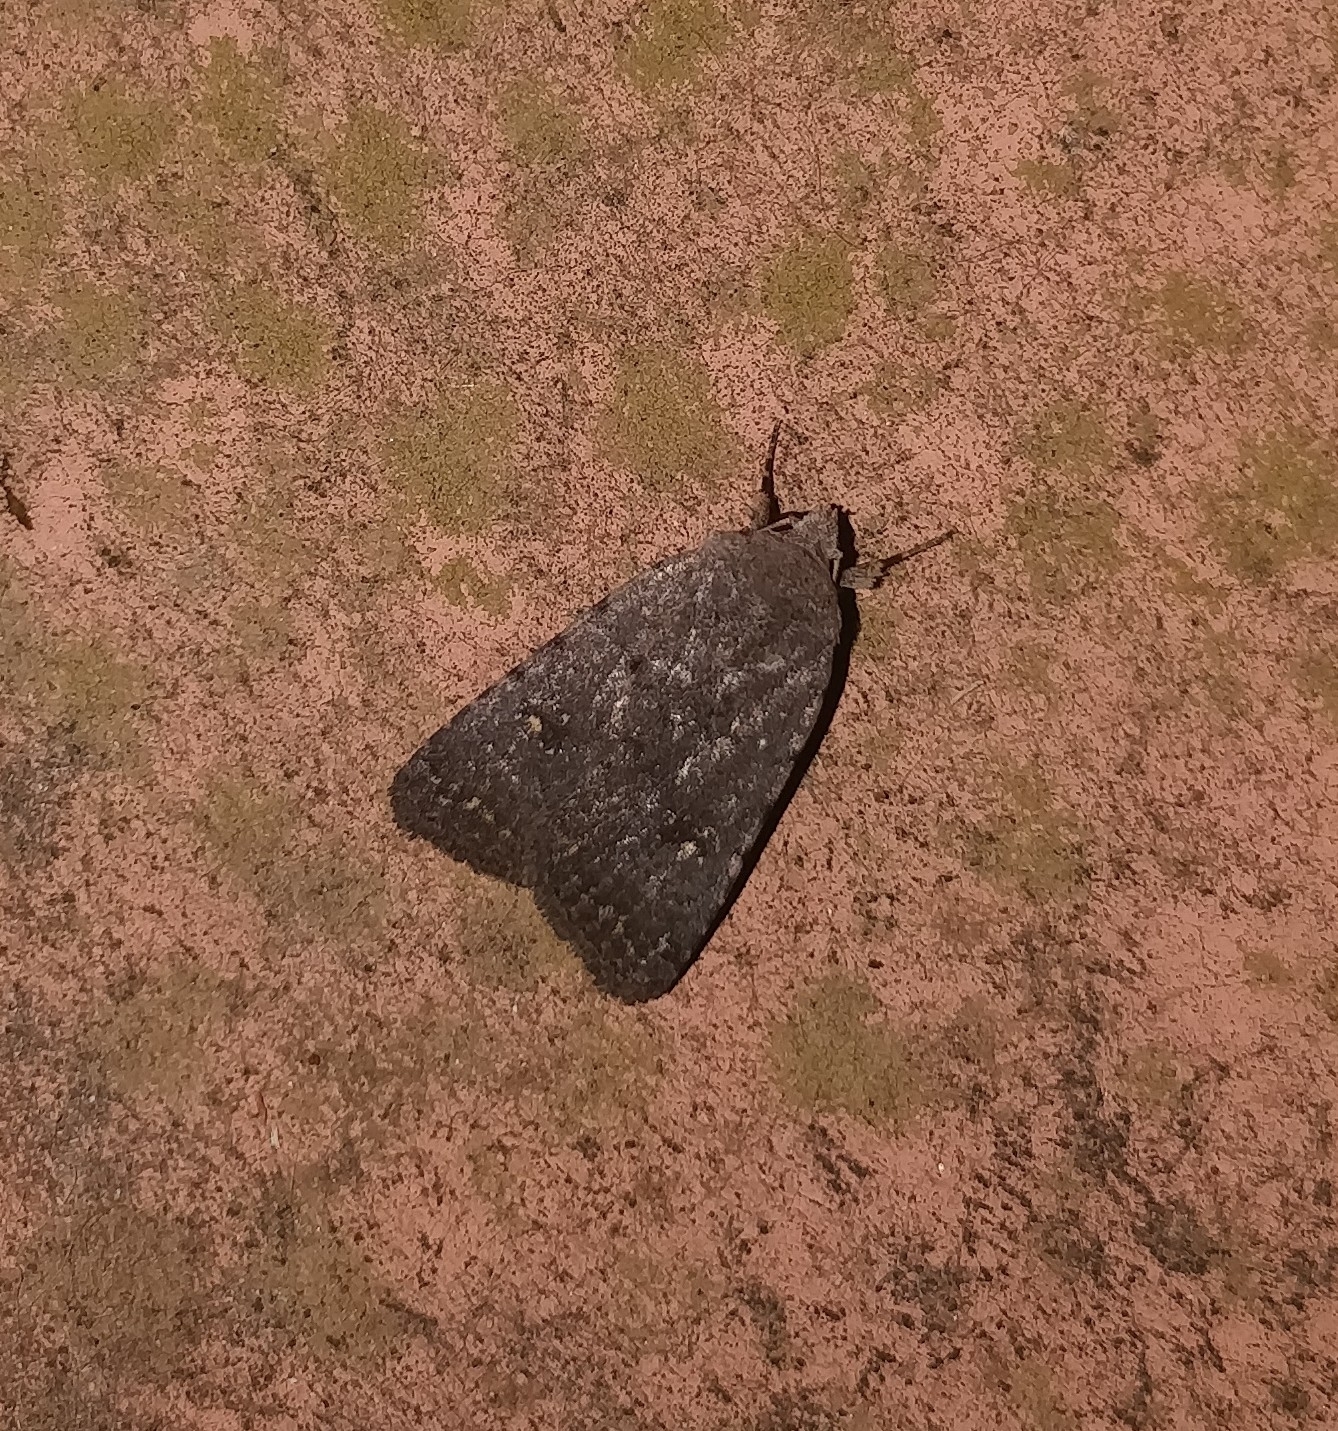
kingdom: Animalia
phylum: Arthropoda
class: Insecta
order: Lepidoptera
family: Noctuidae
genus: Caradrina
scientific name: Caradrina rebeli
